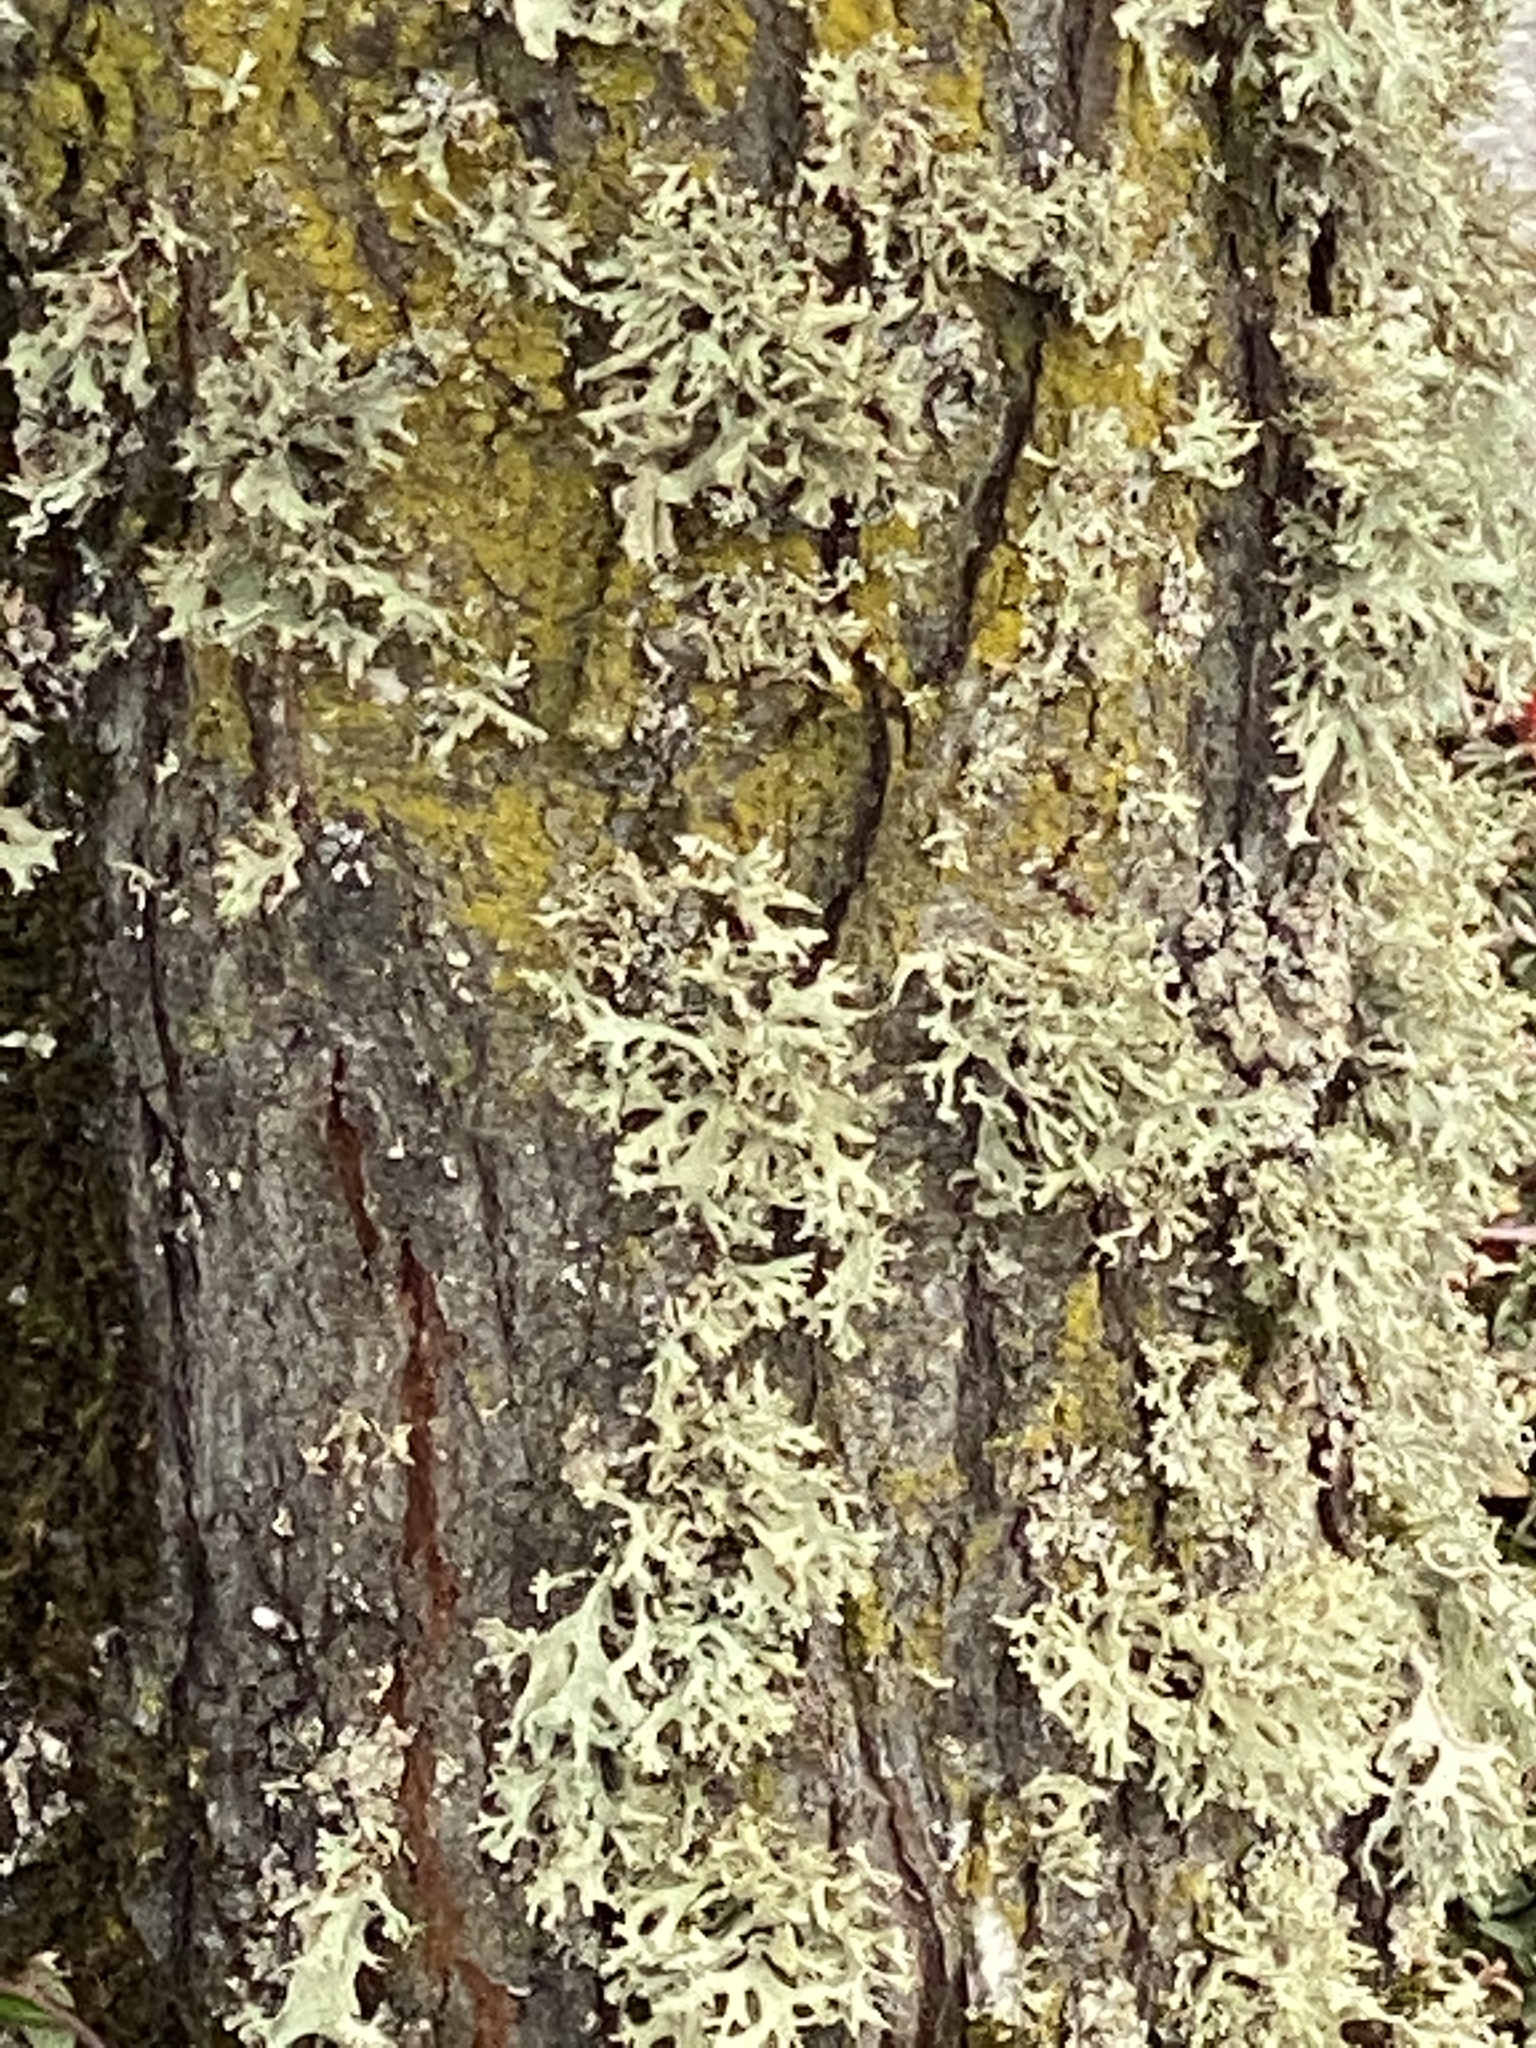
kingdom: Fungi
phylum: Ascomycota
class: Lecanoromycetes
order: Lecanorales
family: Parmeliaceae
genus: Evernia
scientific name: Evernia prunastri
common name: Oak moss
